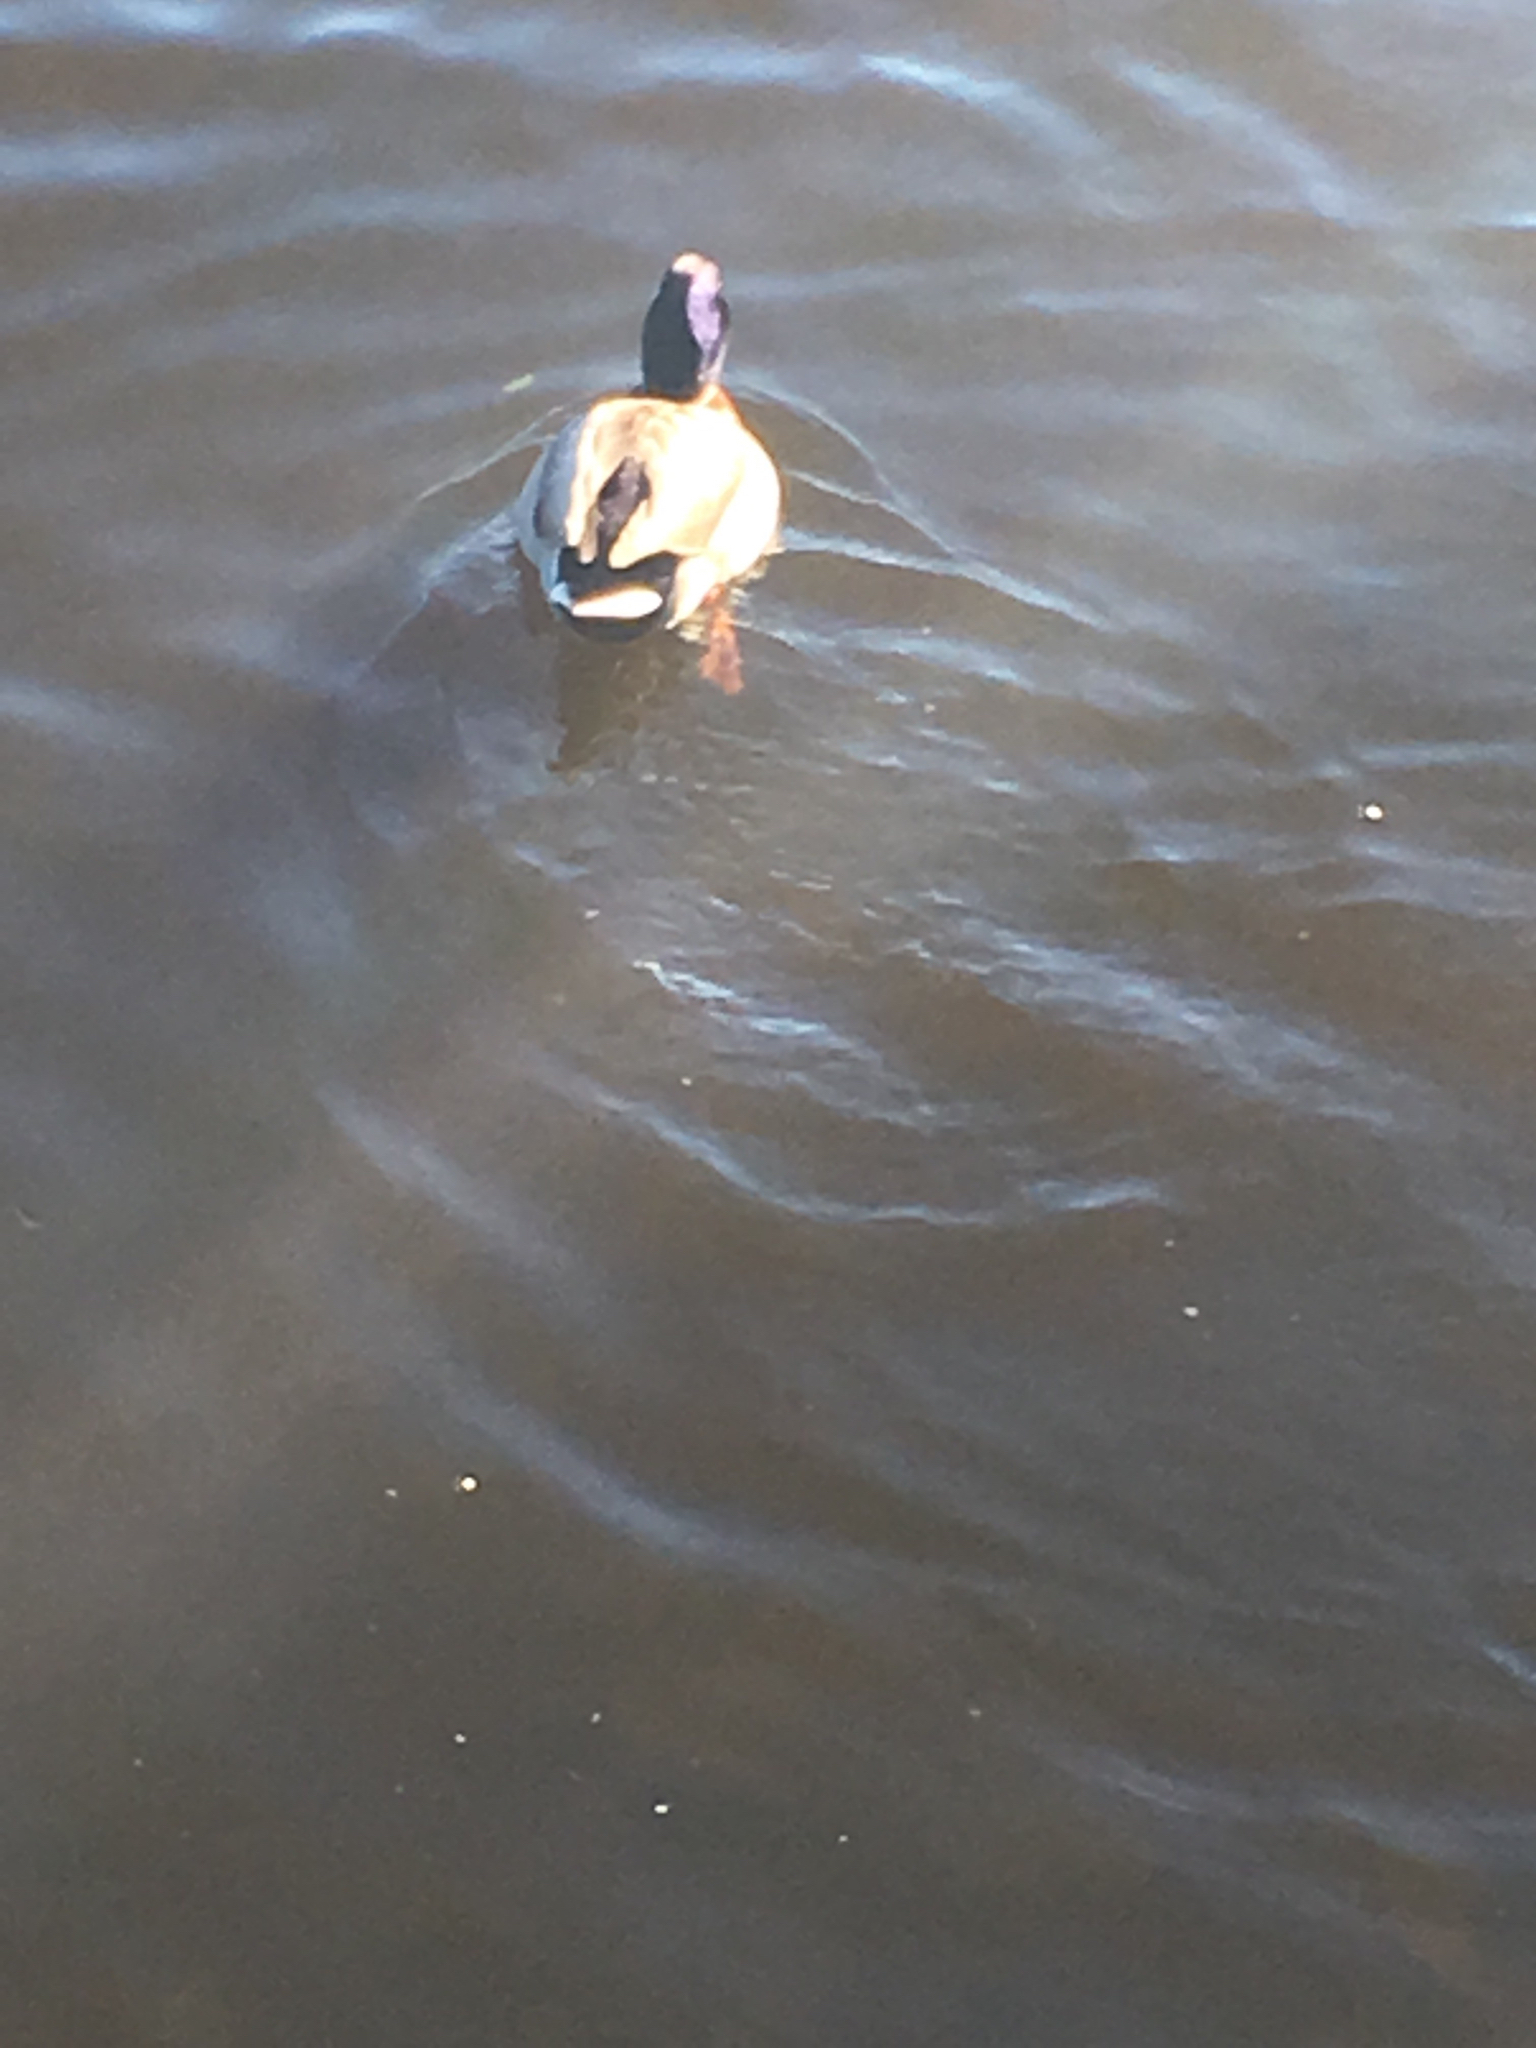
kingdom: Animalia
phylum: Chordata
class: Aves
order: Anseriformes
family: Anatidae
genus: Anas
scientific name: Anas platyrhynchos
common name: Mallard
